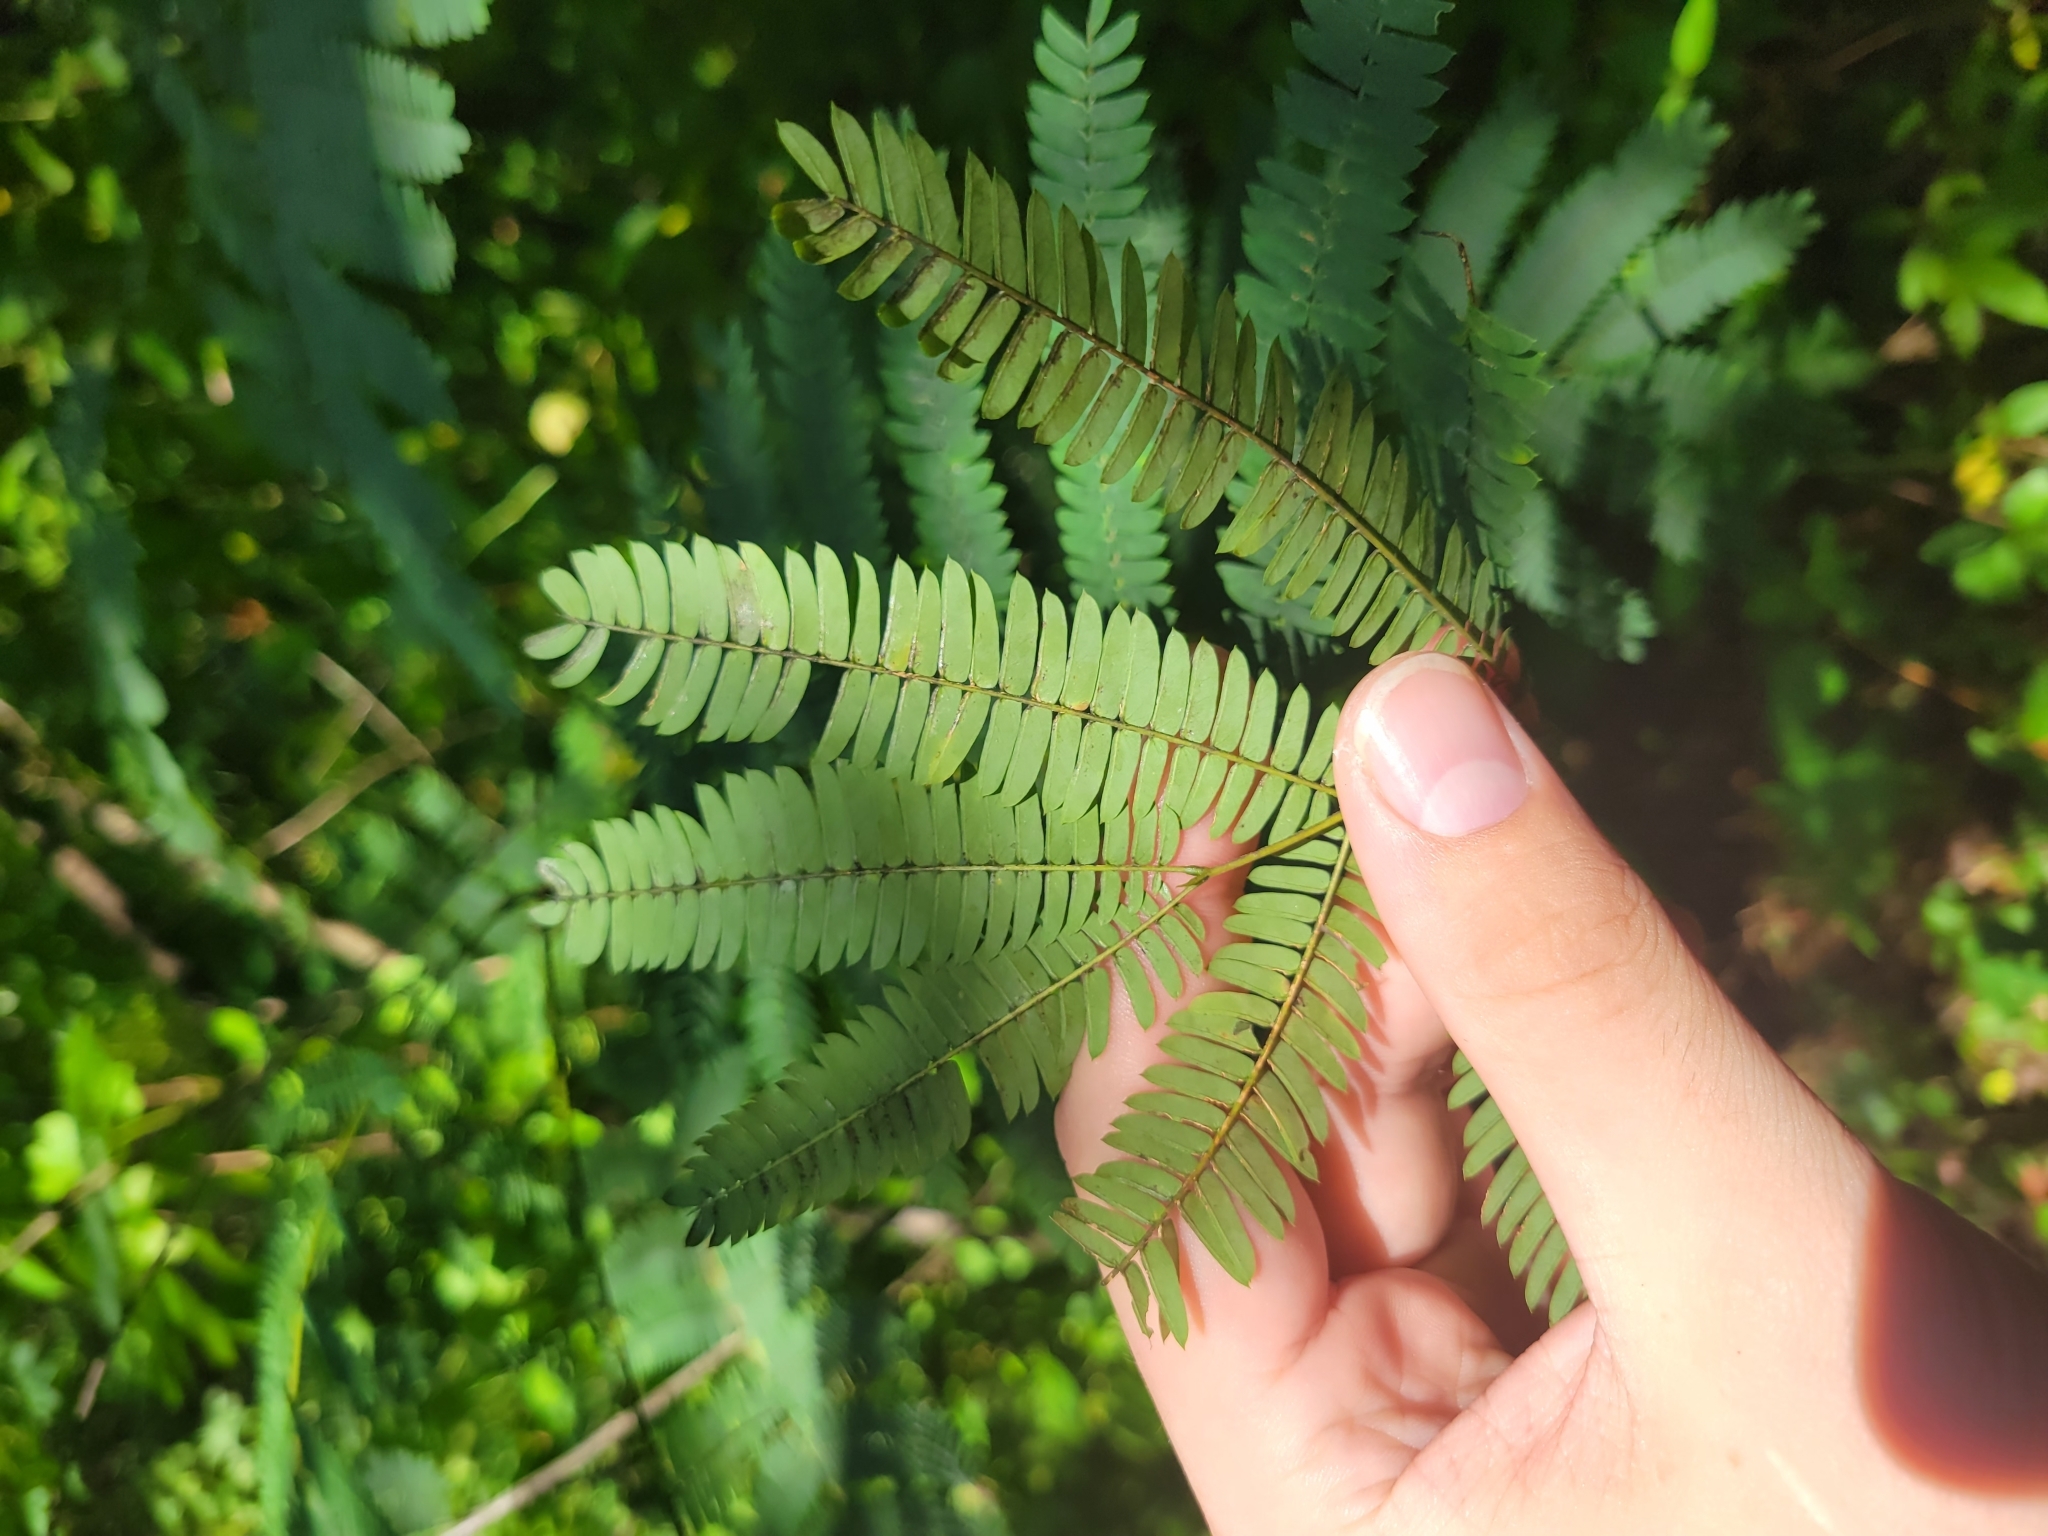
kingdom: Plantae
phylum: Tracheophyta
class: Magnoliopsida
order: Fabales
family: Fabaceae
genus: Albizia
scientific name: Albizia julibrissin
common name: Silktree
